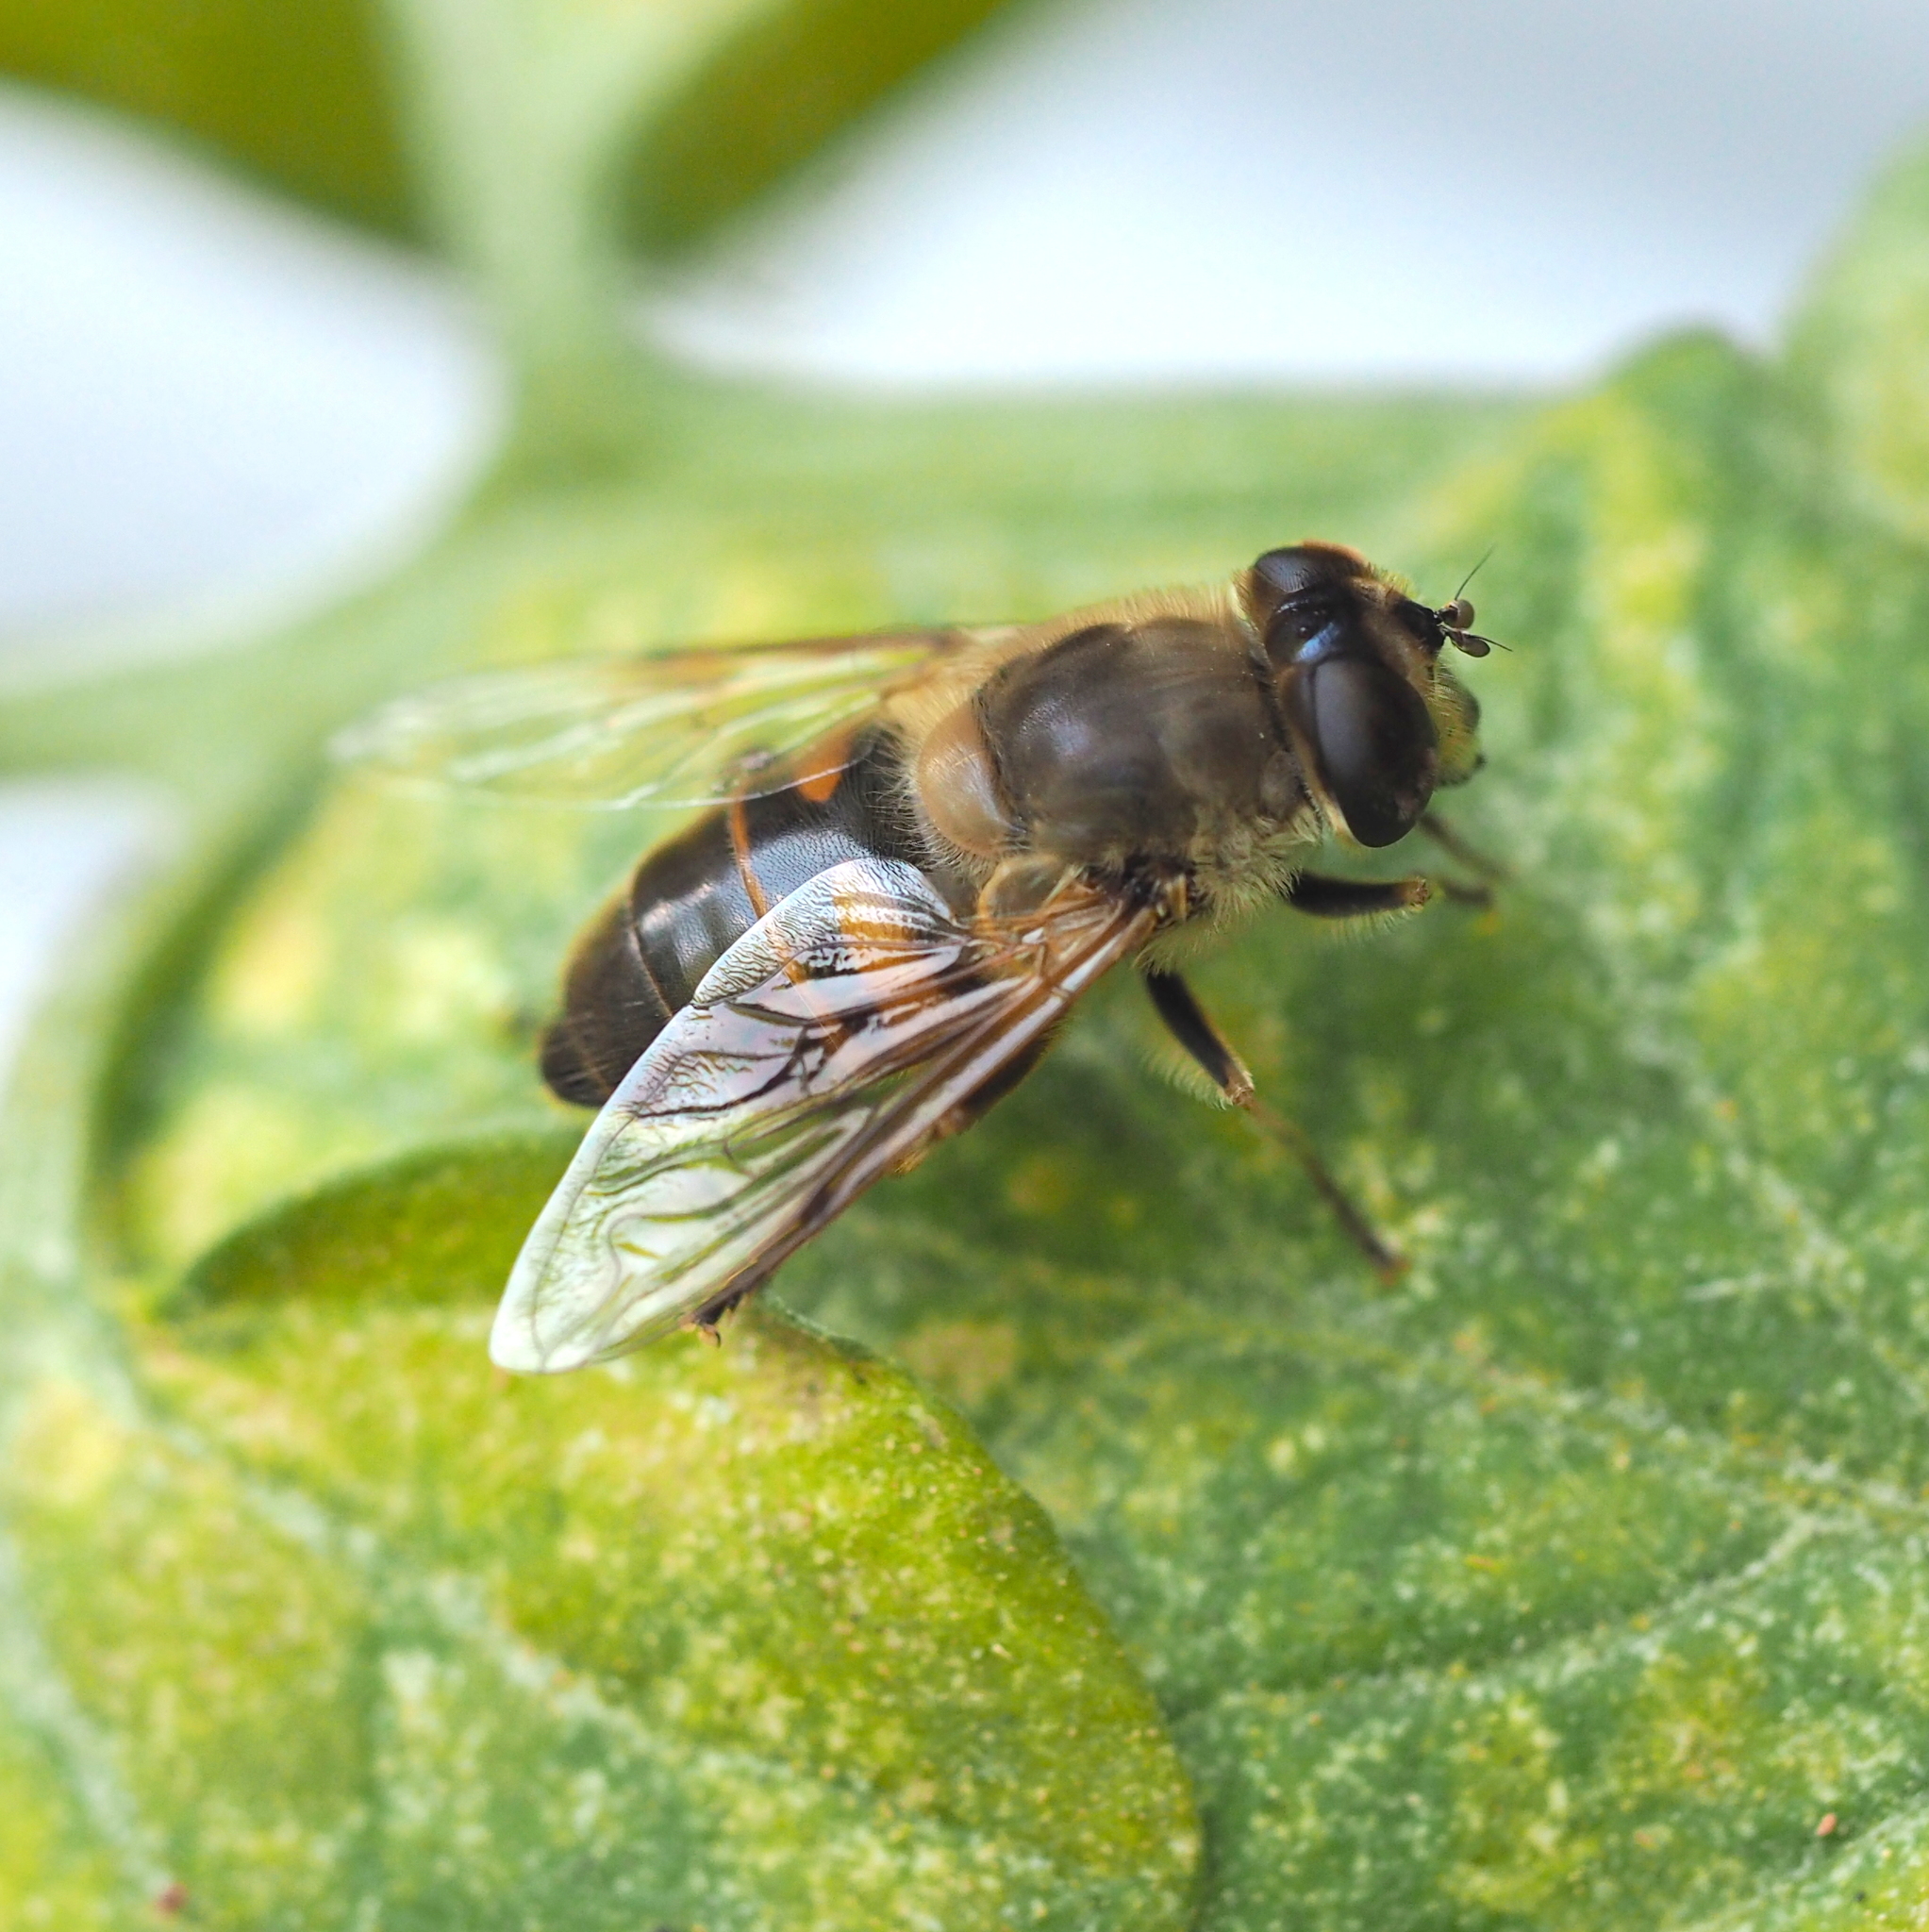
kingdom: Animalia
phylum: Arthropoda
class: Insecta
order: Diptera
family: Syrphidae
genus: Eristalis
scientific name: Eristalis tenax
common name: Drone fly
